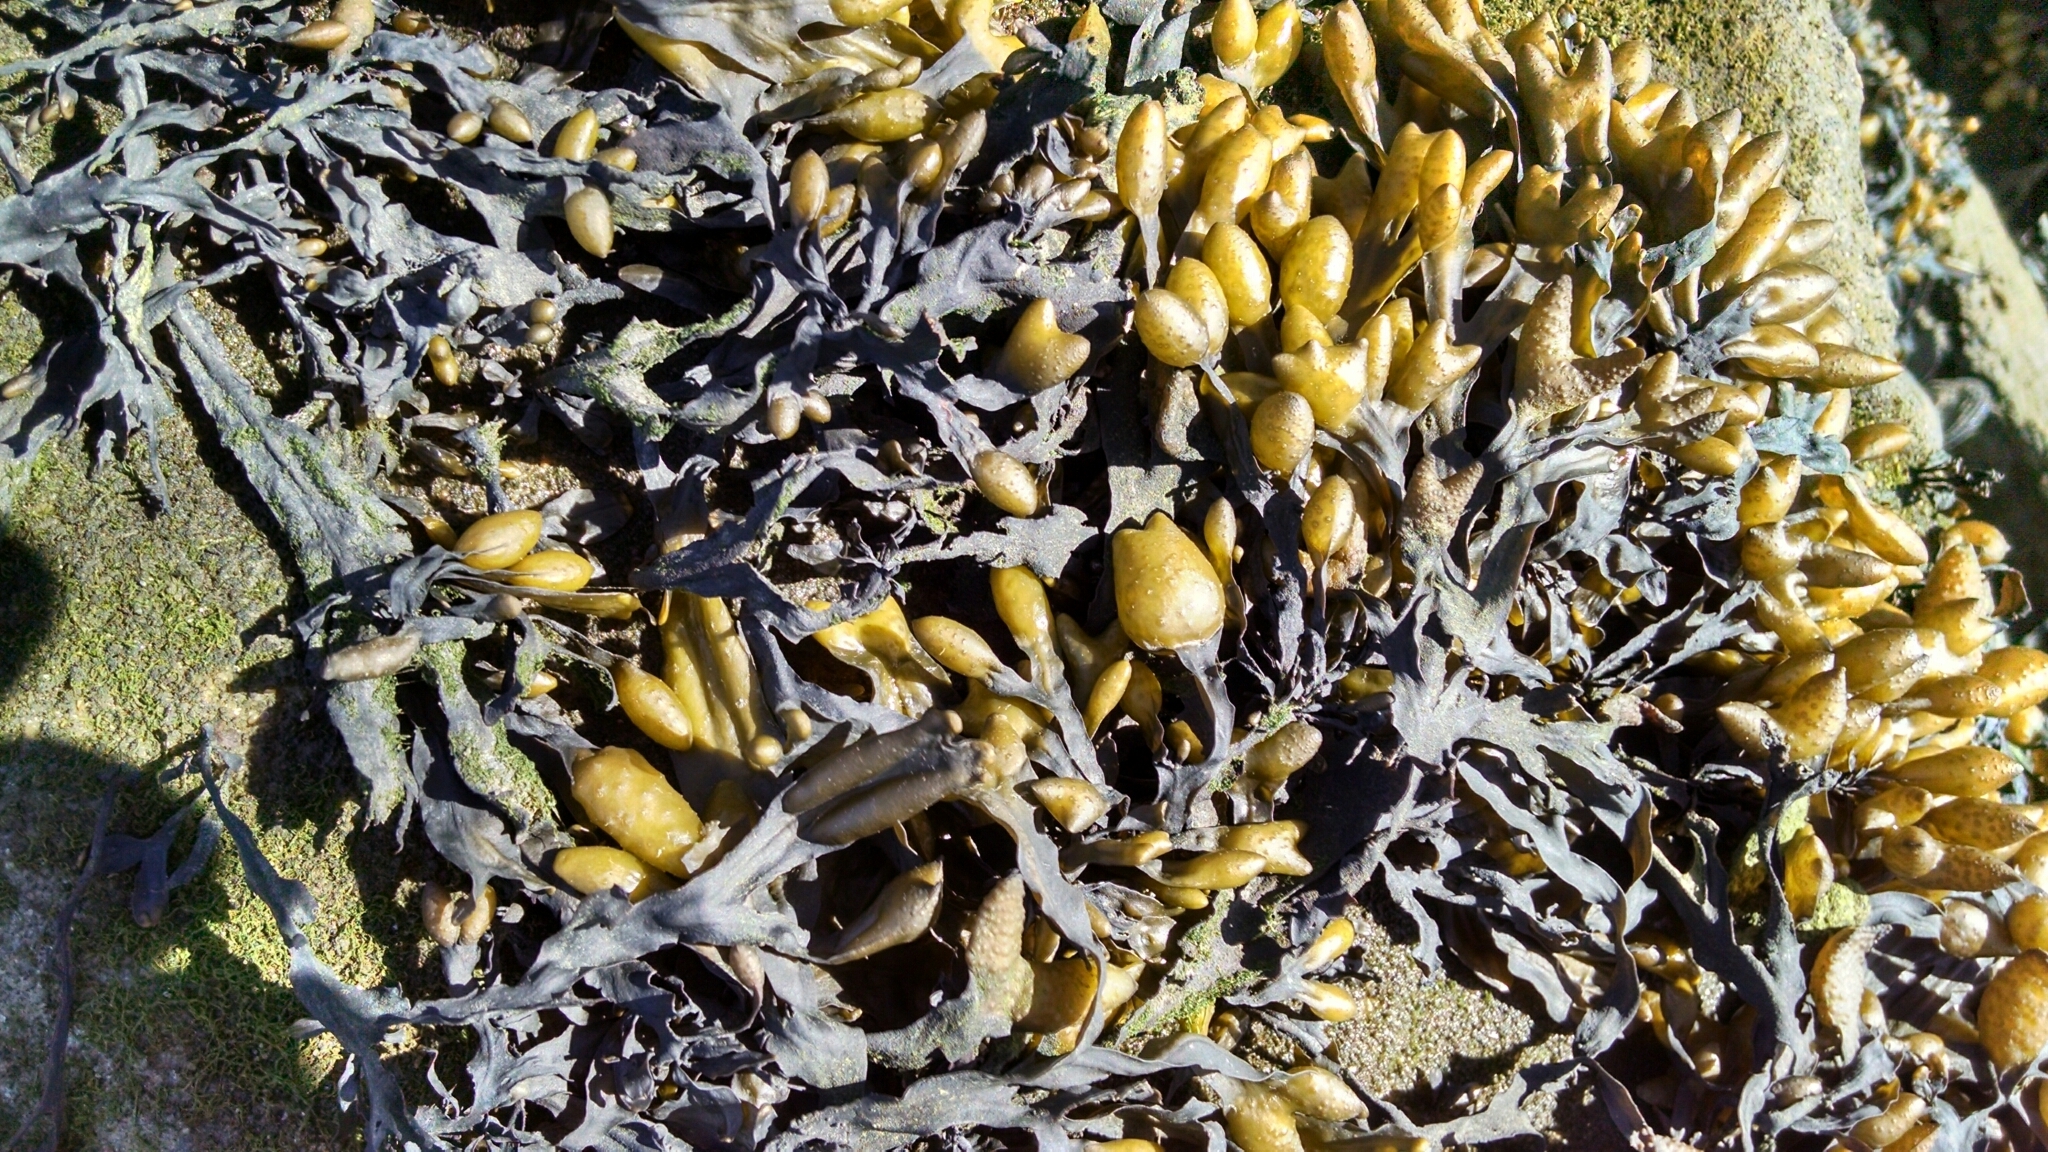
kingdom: Chromista
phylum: Ochrophyta
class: Phaeophyceae
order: Fucales
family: Fucaceae
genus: Fucus
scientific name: Fucus distichus
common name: Rockweed
